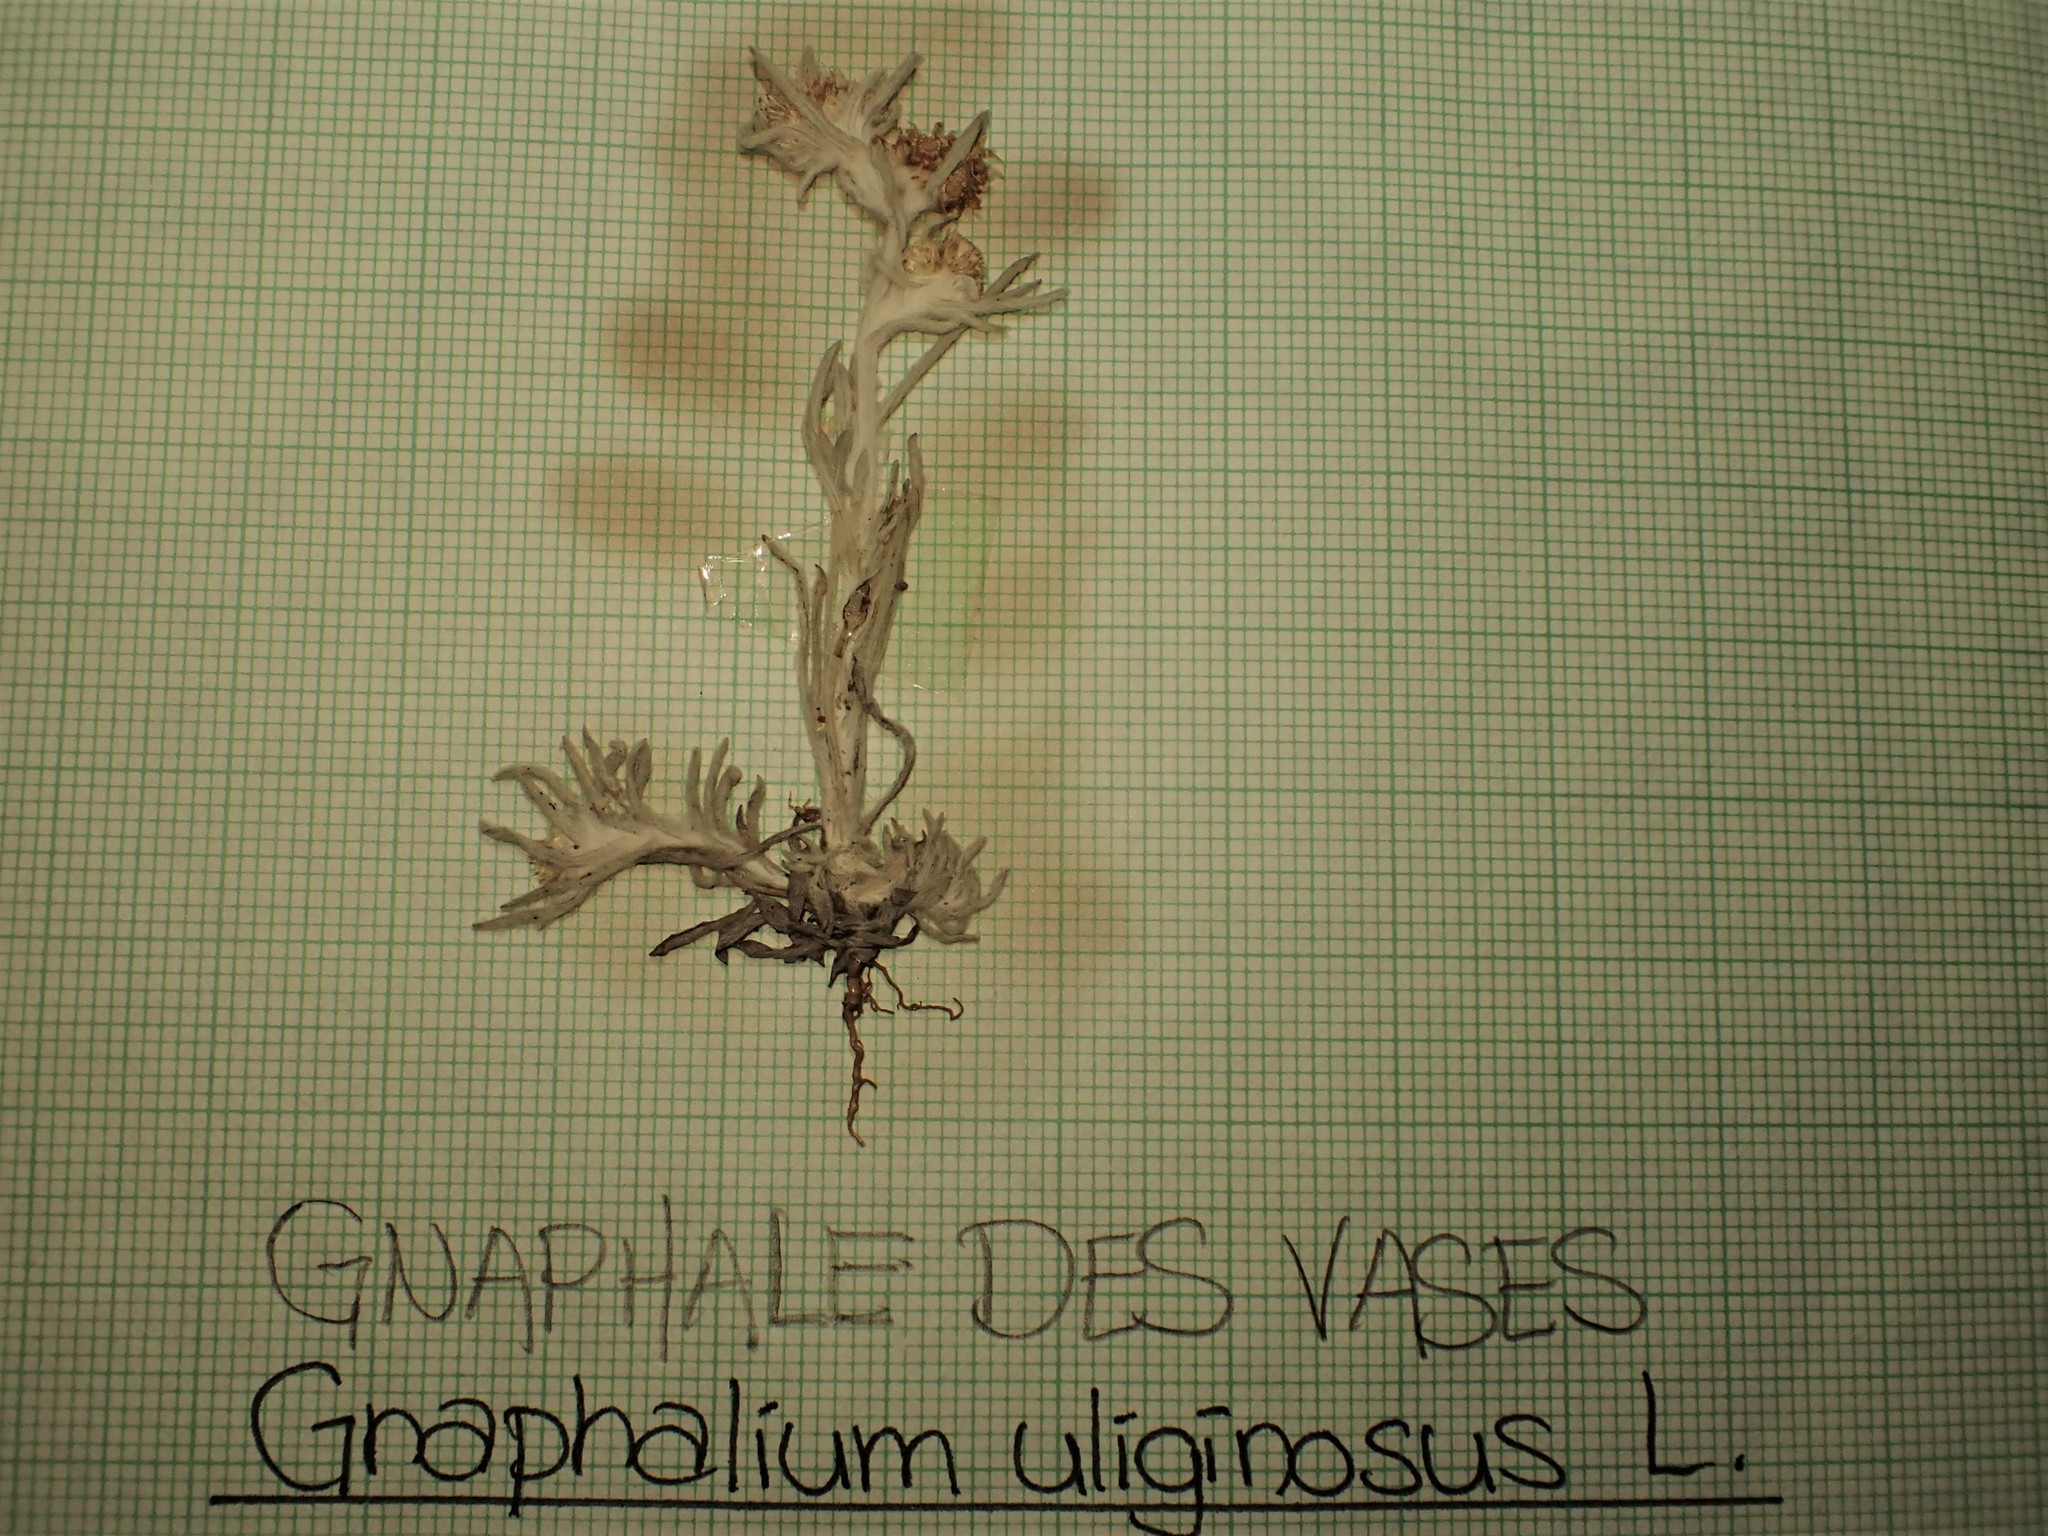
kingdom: Plantae
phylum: Tracheophyta
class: Magnoliopsida
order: Asterales
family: Asteraceae
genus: Gnaphalium
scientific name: Gnaphalium uliginosum
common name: Marsh cudweed
